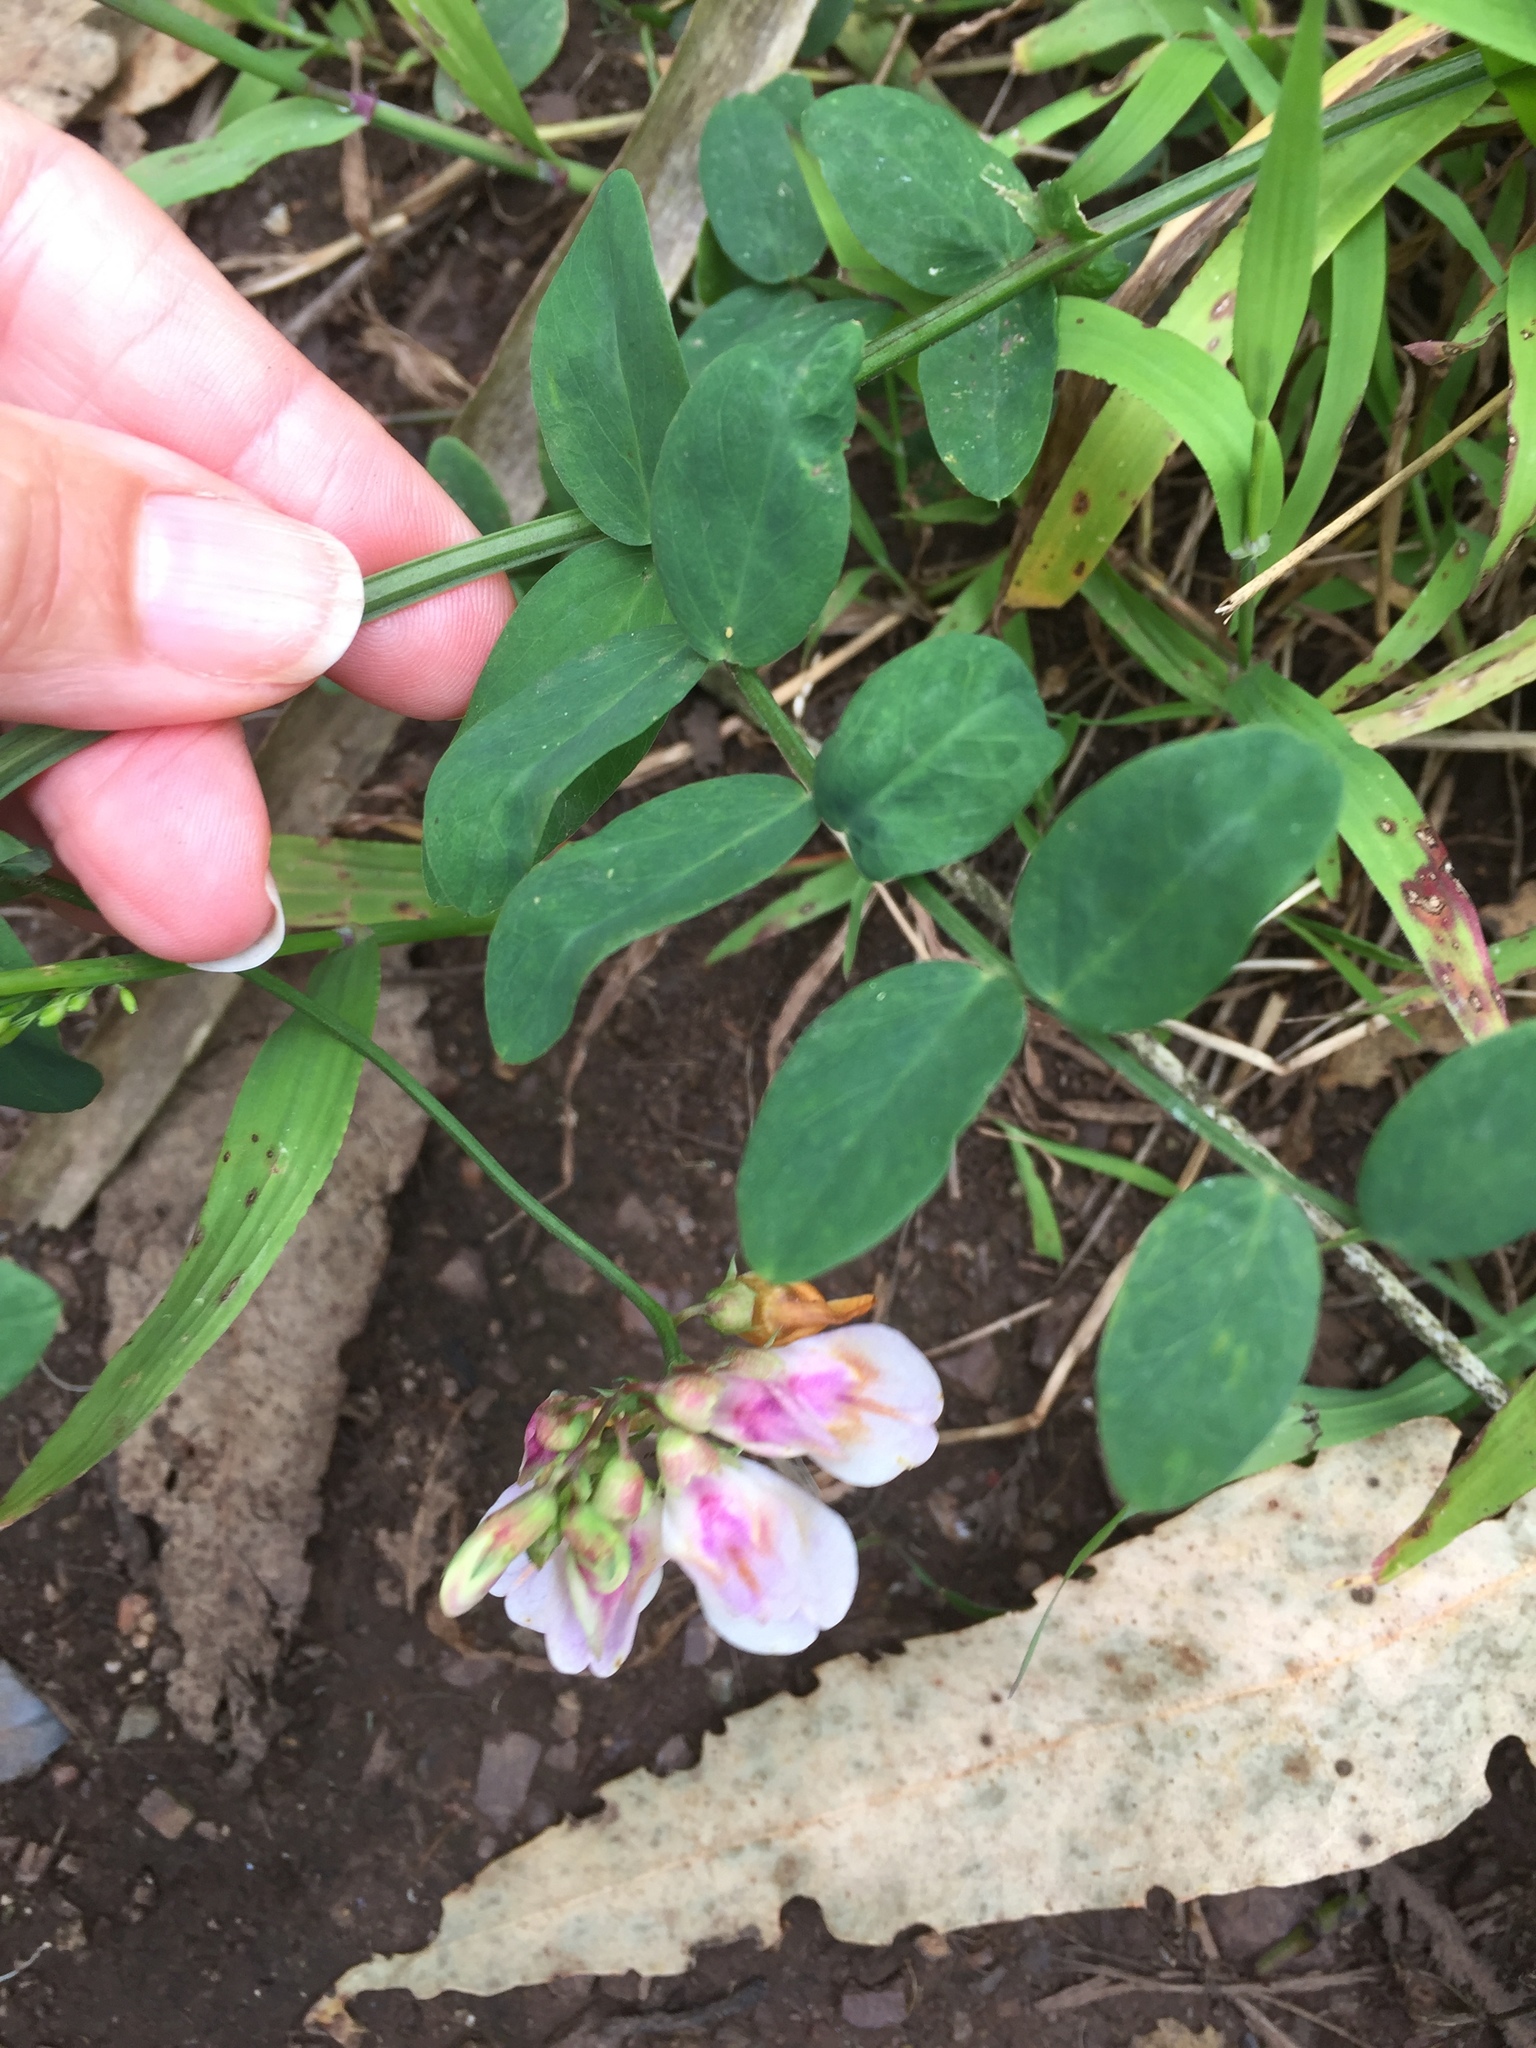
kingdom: Plantae
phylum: Tracheophyta
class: Magnoliopsida
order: Fabales
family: Fabaceae
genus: Lathyrus
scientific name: Lathyrus vestitus
